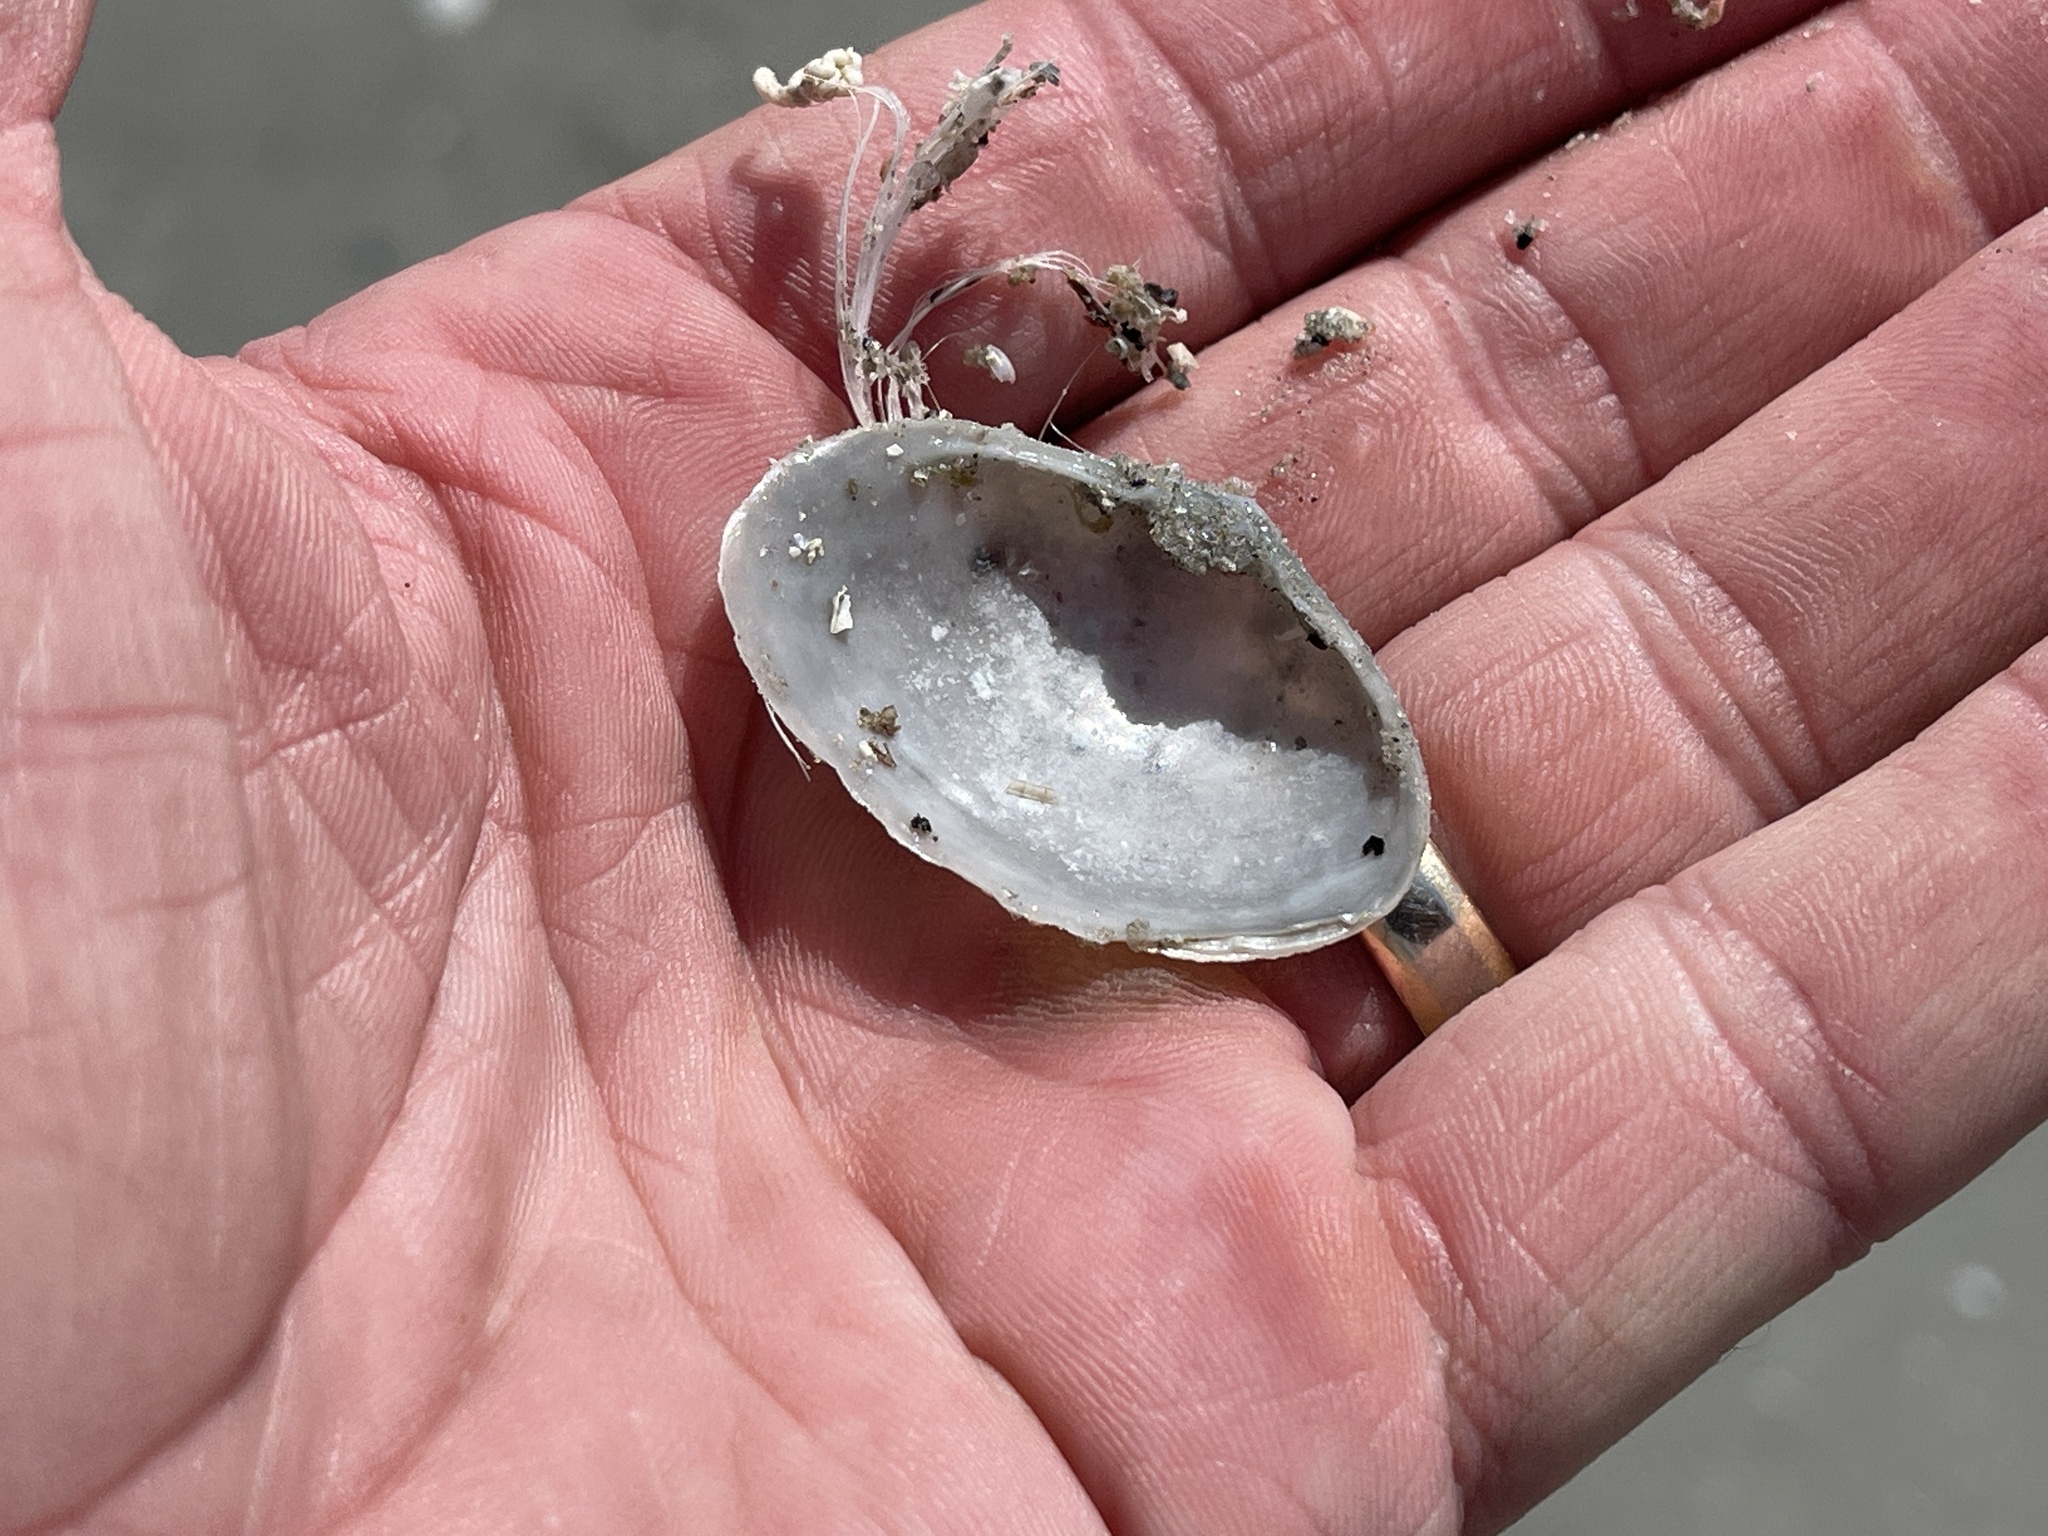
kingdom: Animalia
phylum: Mollusca
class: Bivalvia
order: Venerida
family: Mactridae
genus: Mactrotoma
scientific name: Mactrotoma fragilis
